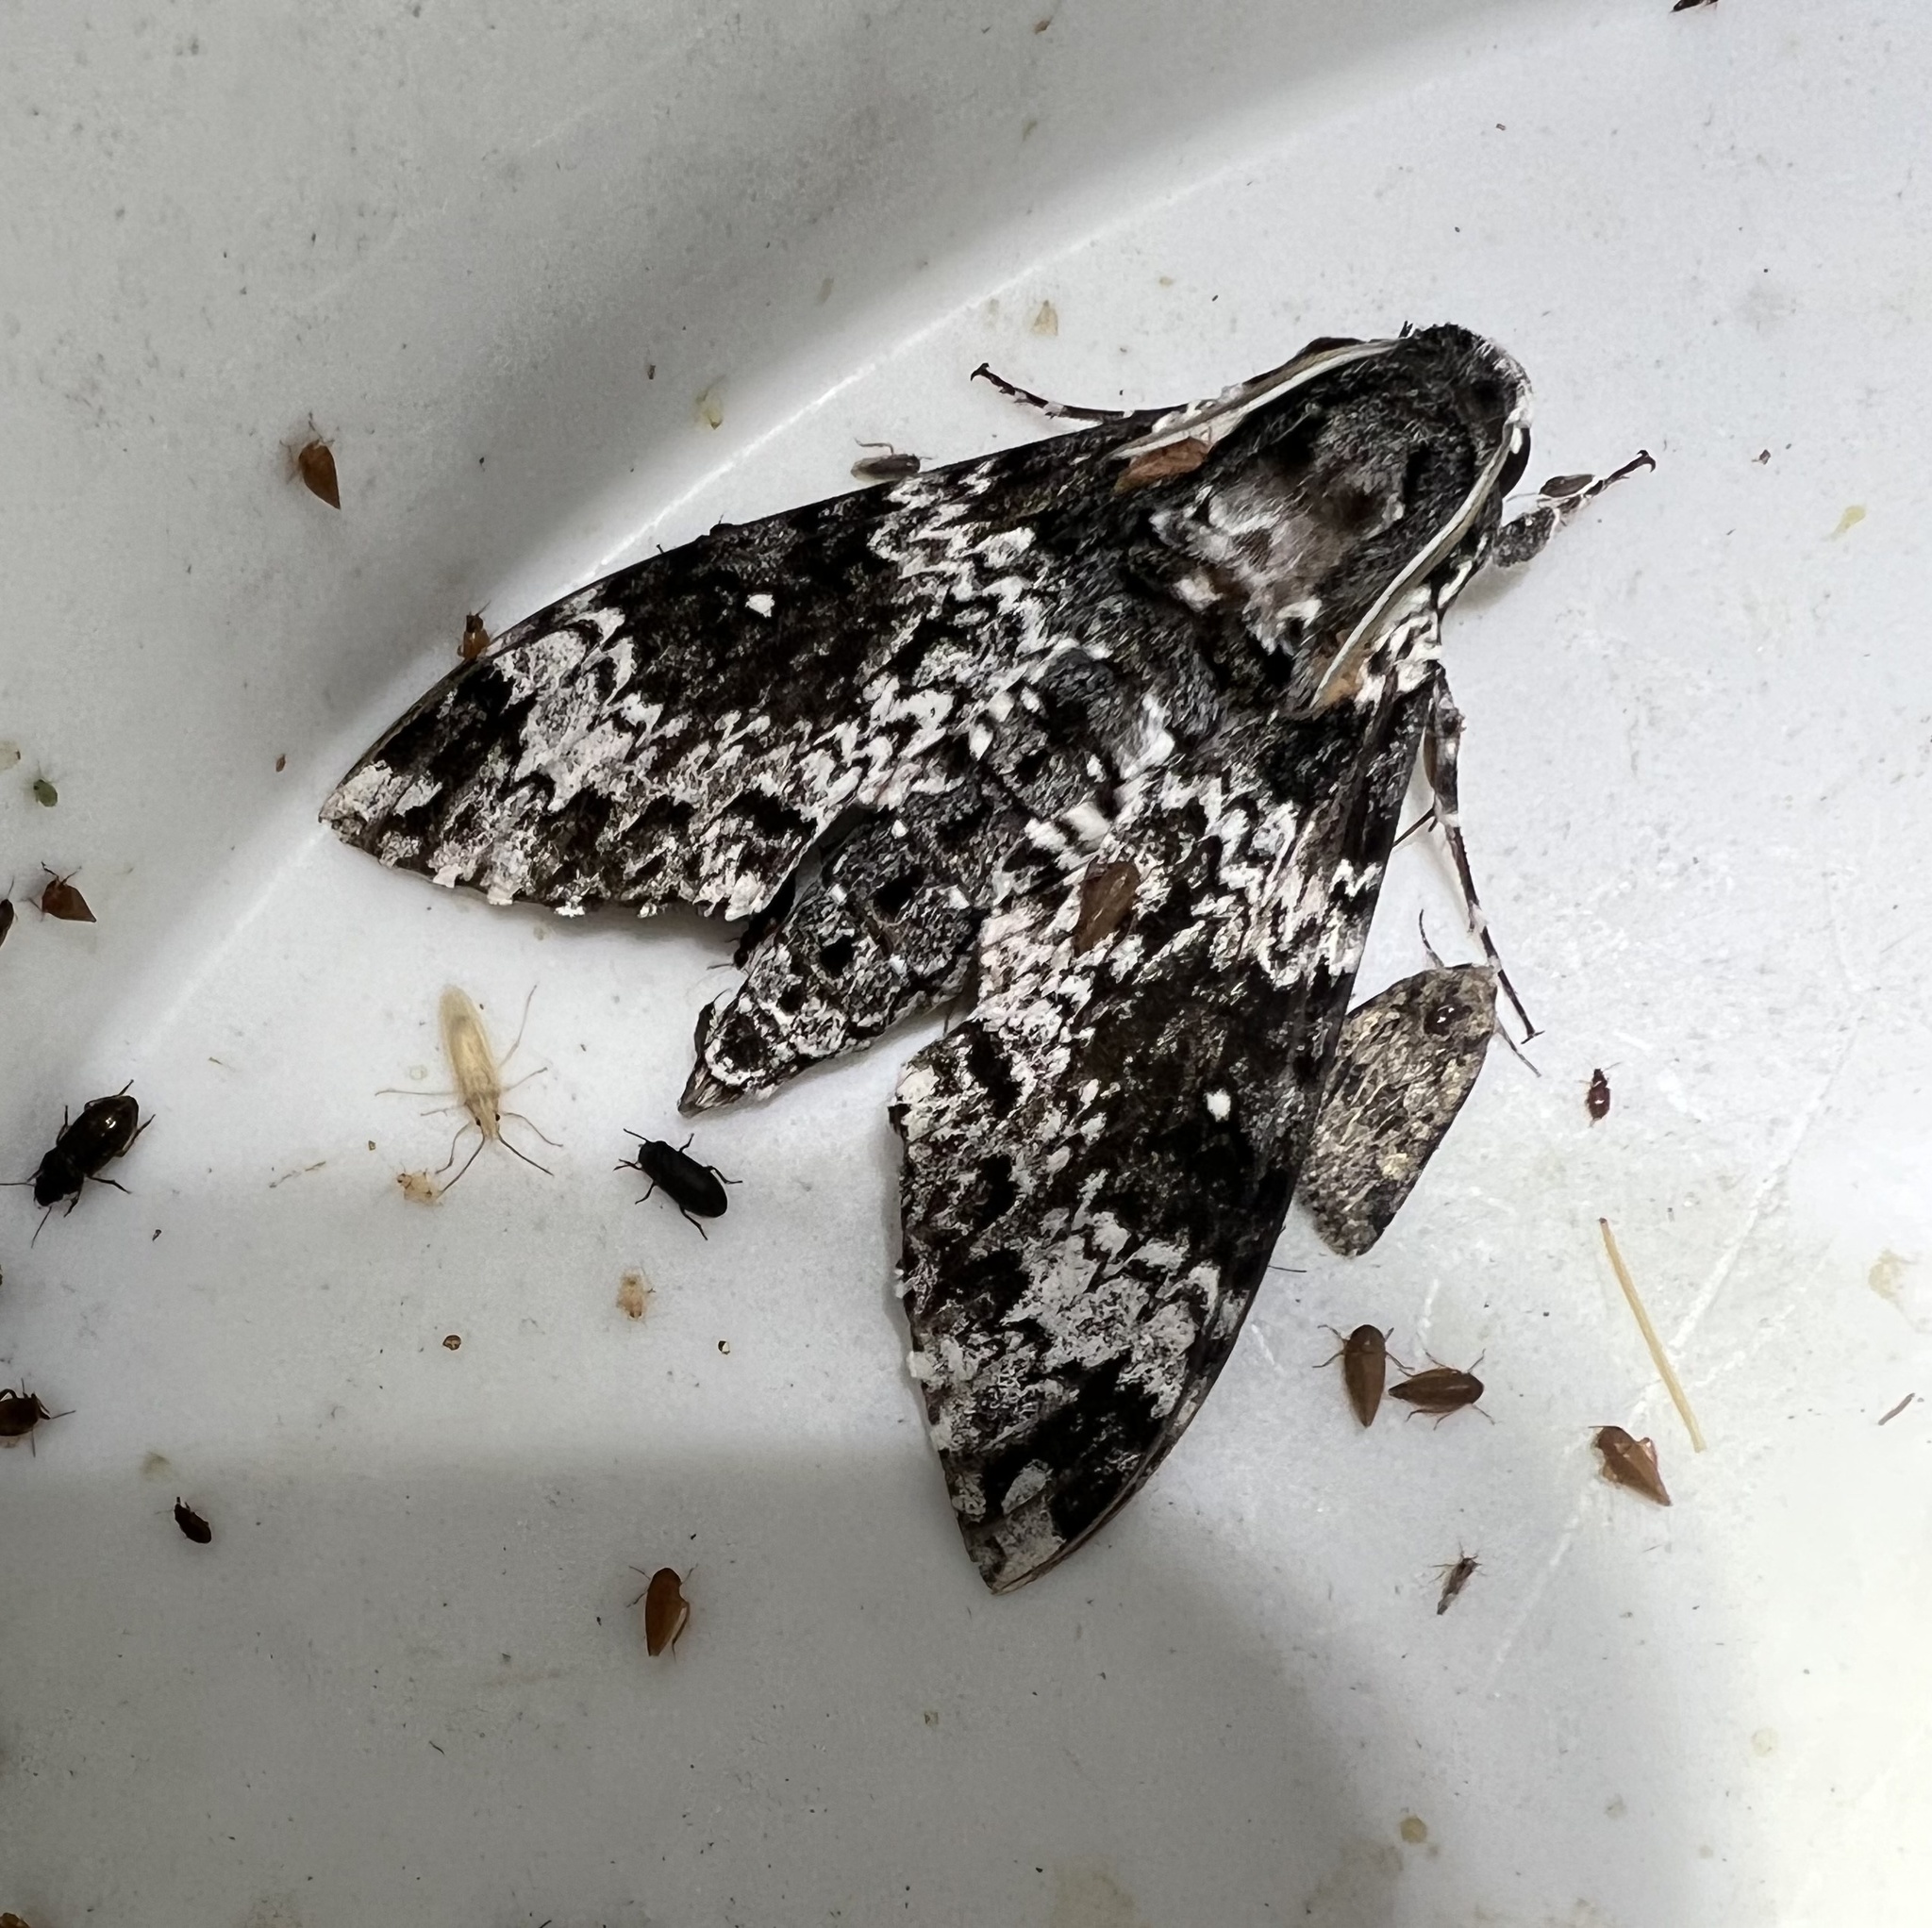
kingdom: Animalia
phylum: Arthropoda
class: Insecta
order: Lepidoptera
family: Sphingidae
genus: Manduca
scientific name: Manduca rustica
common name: Rustic sphinx
